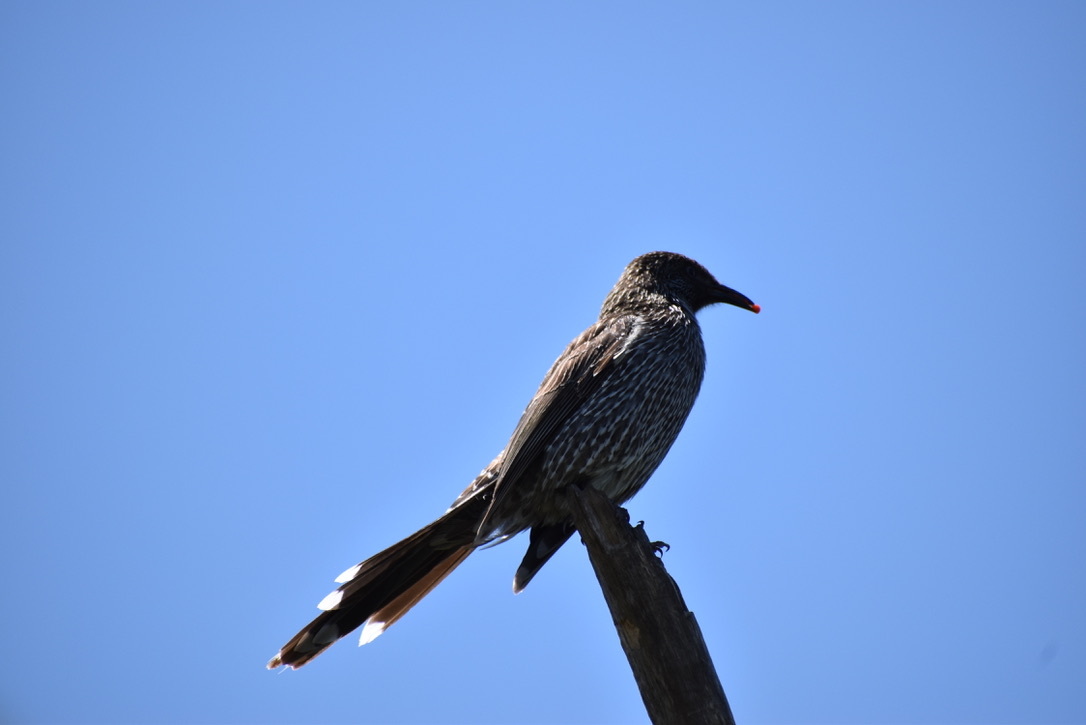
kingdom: Animalia
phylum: Chordata
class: Aves
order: Passeriformes
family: Meliphagidae
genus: Anthochaera
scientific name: Anthochaera chrysoptera
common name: Little wattlebird
